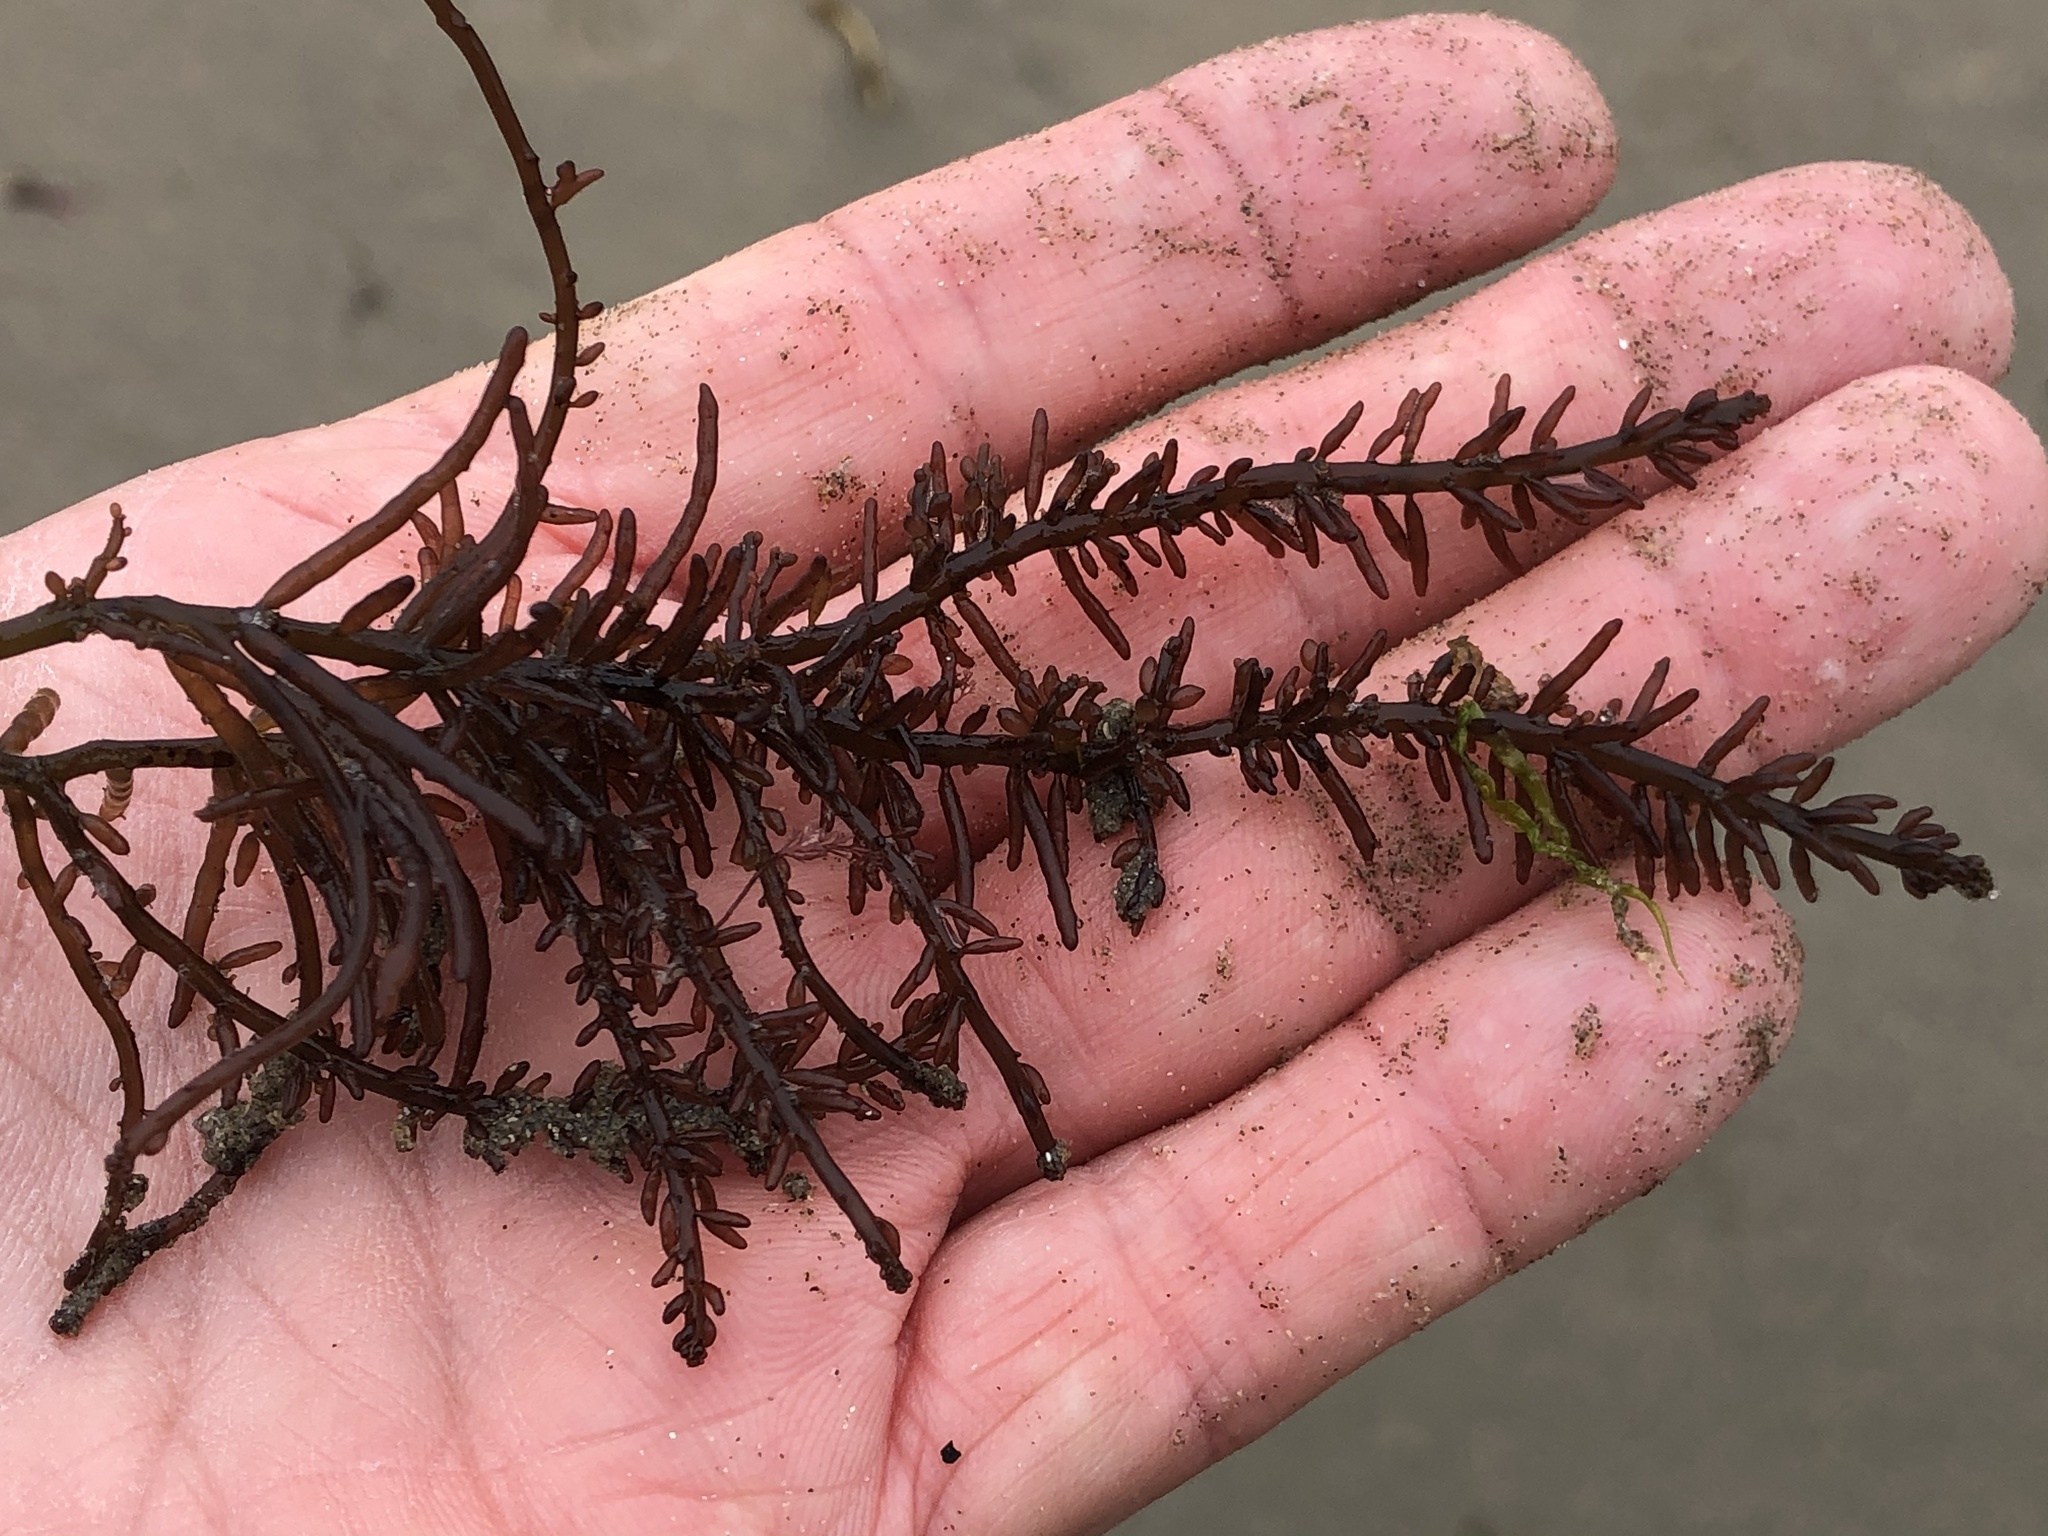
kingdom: Plantae
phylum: Rhodophyta
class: Florideophyceae
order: Rhodymeniales
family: Champiaceae
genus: Neogastroclonium
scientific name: Neogastroclonium subarticulatum
